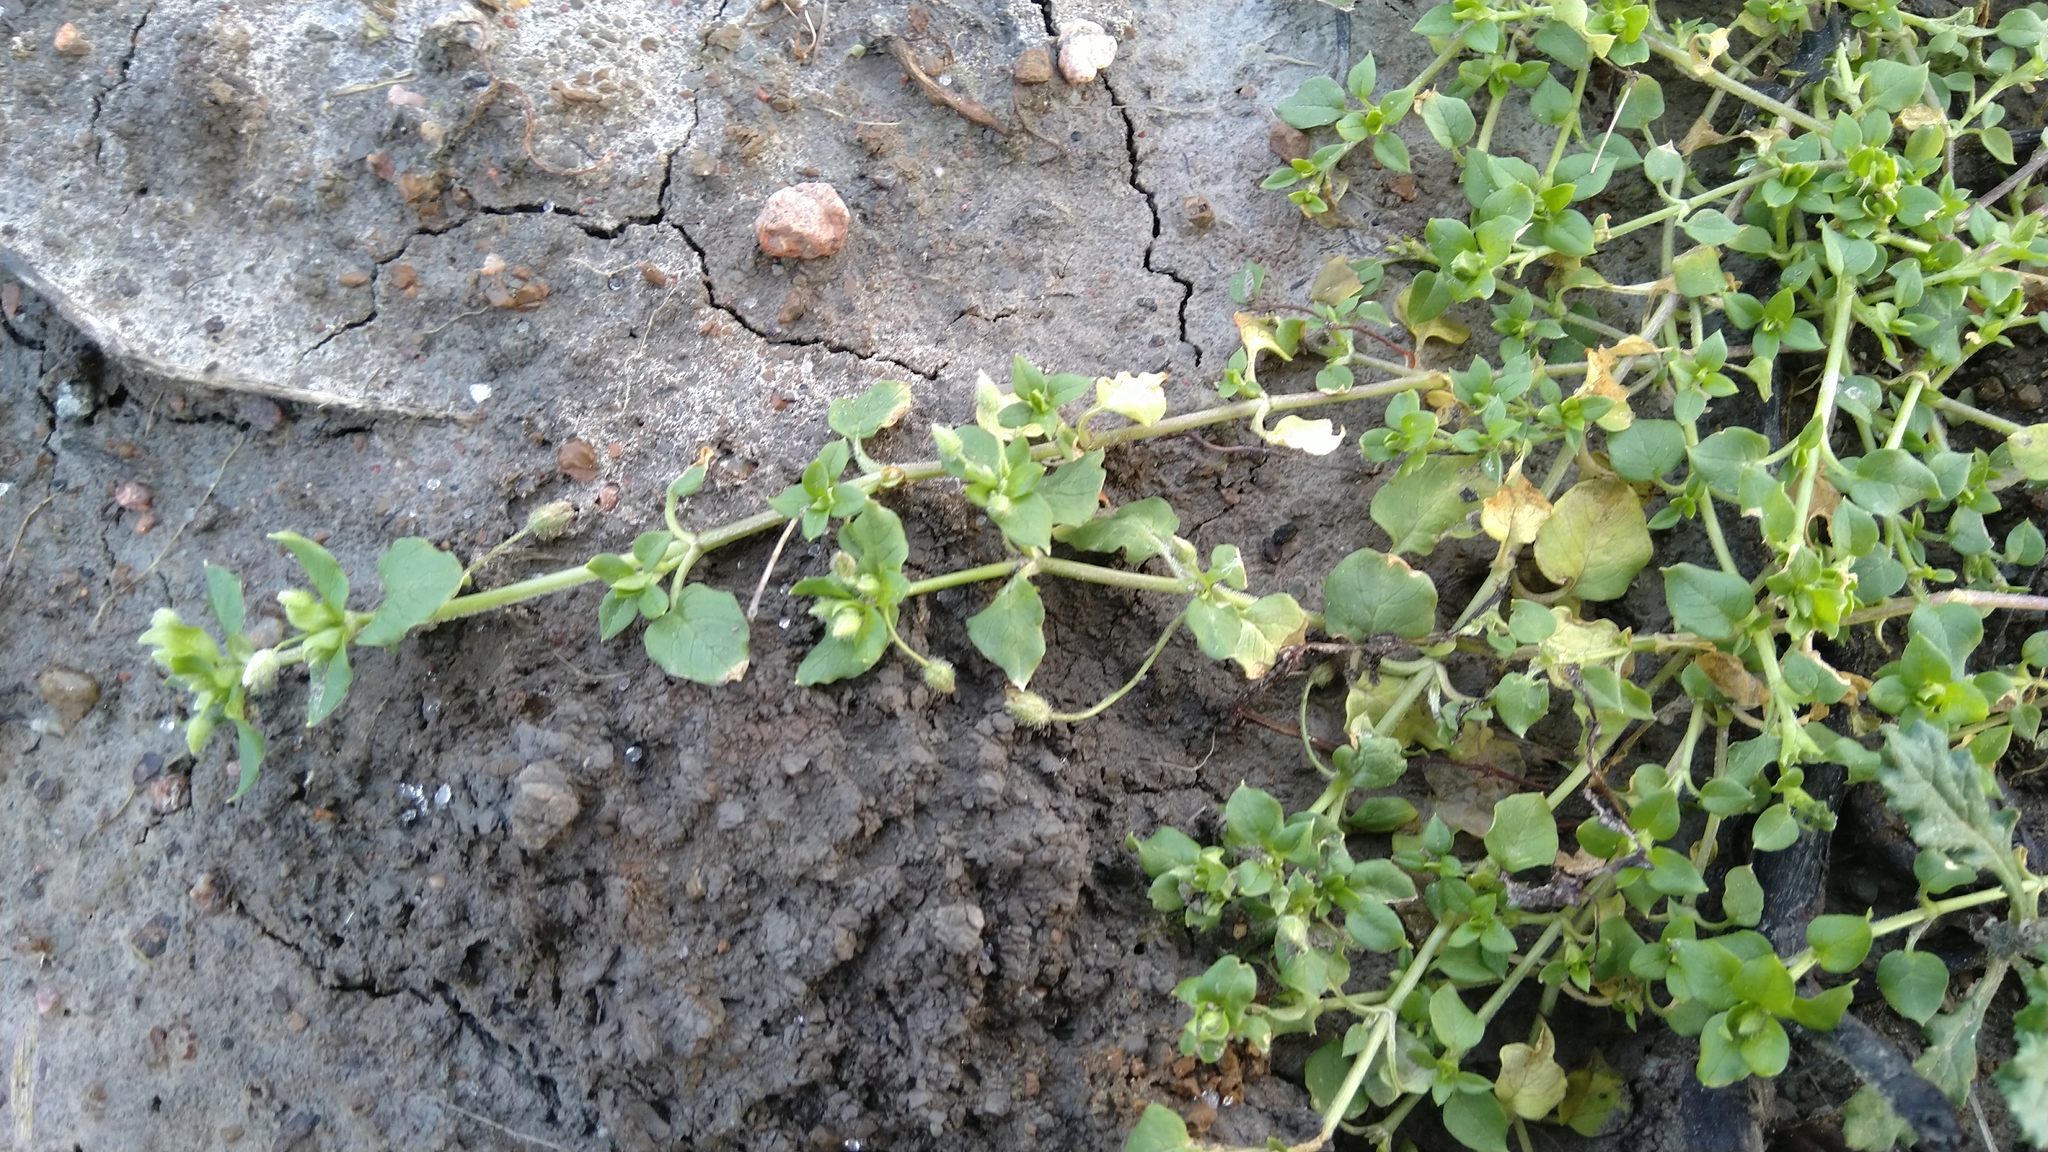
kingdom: Plantae
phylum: Tracheophyta
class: Magnoliopsida
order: Caryophyllales
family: Caryophyllaceae
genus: Stellaria
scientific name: Stellaria media
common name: Common chickweed
